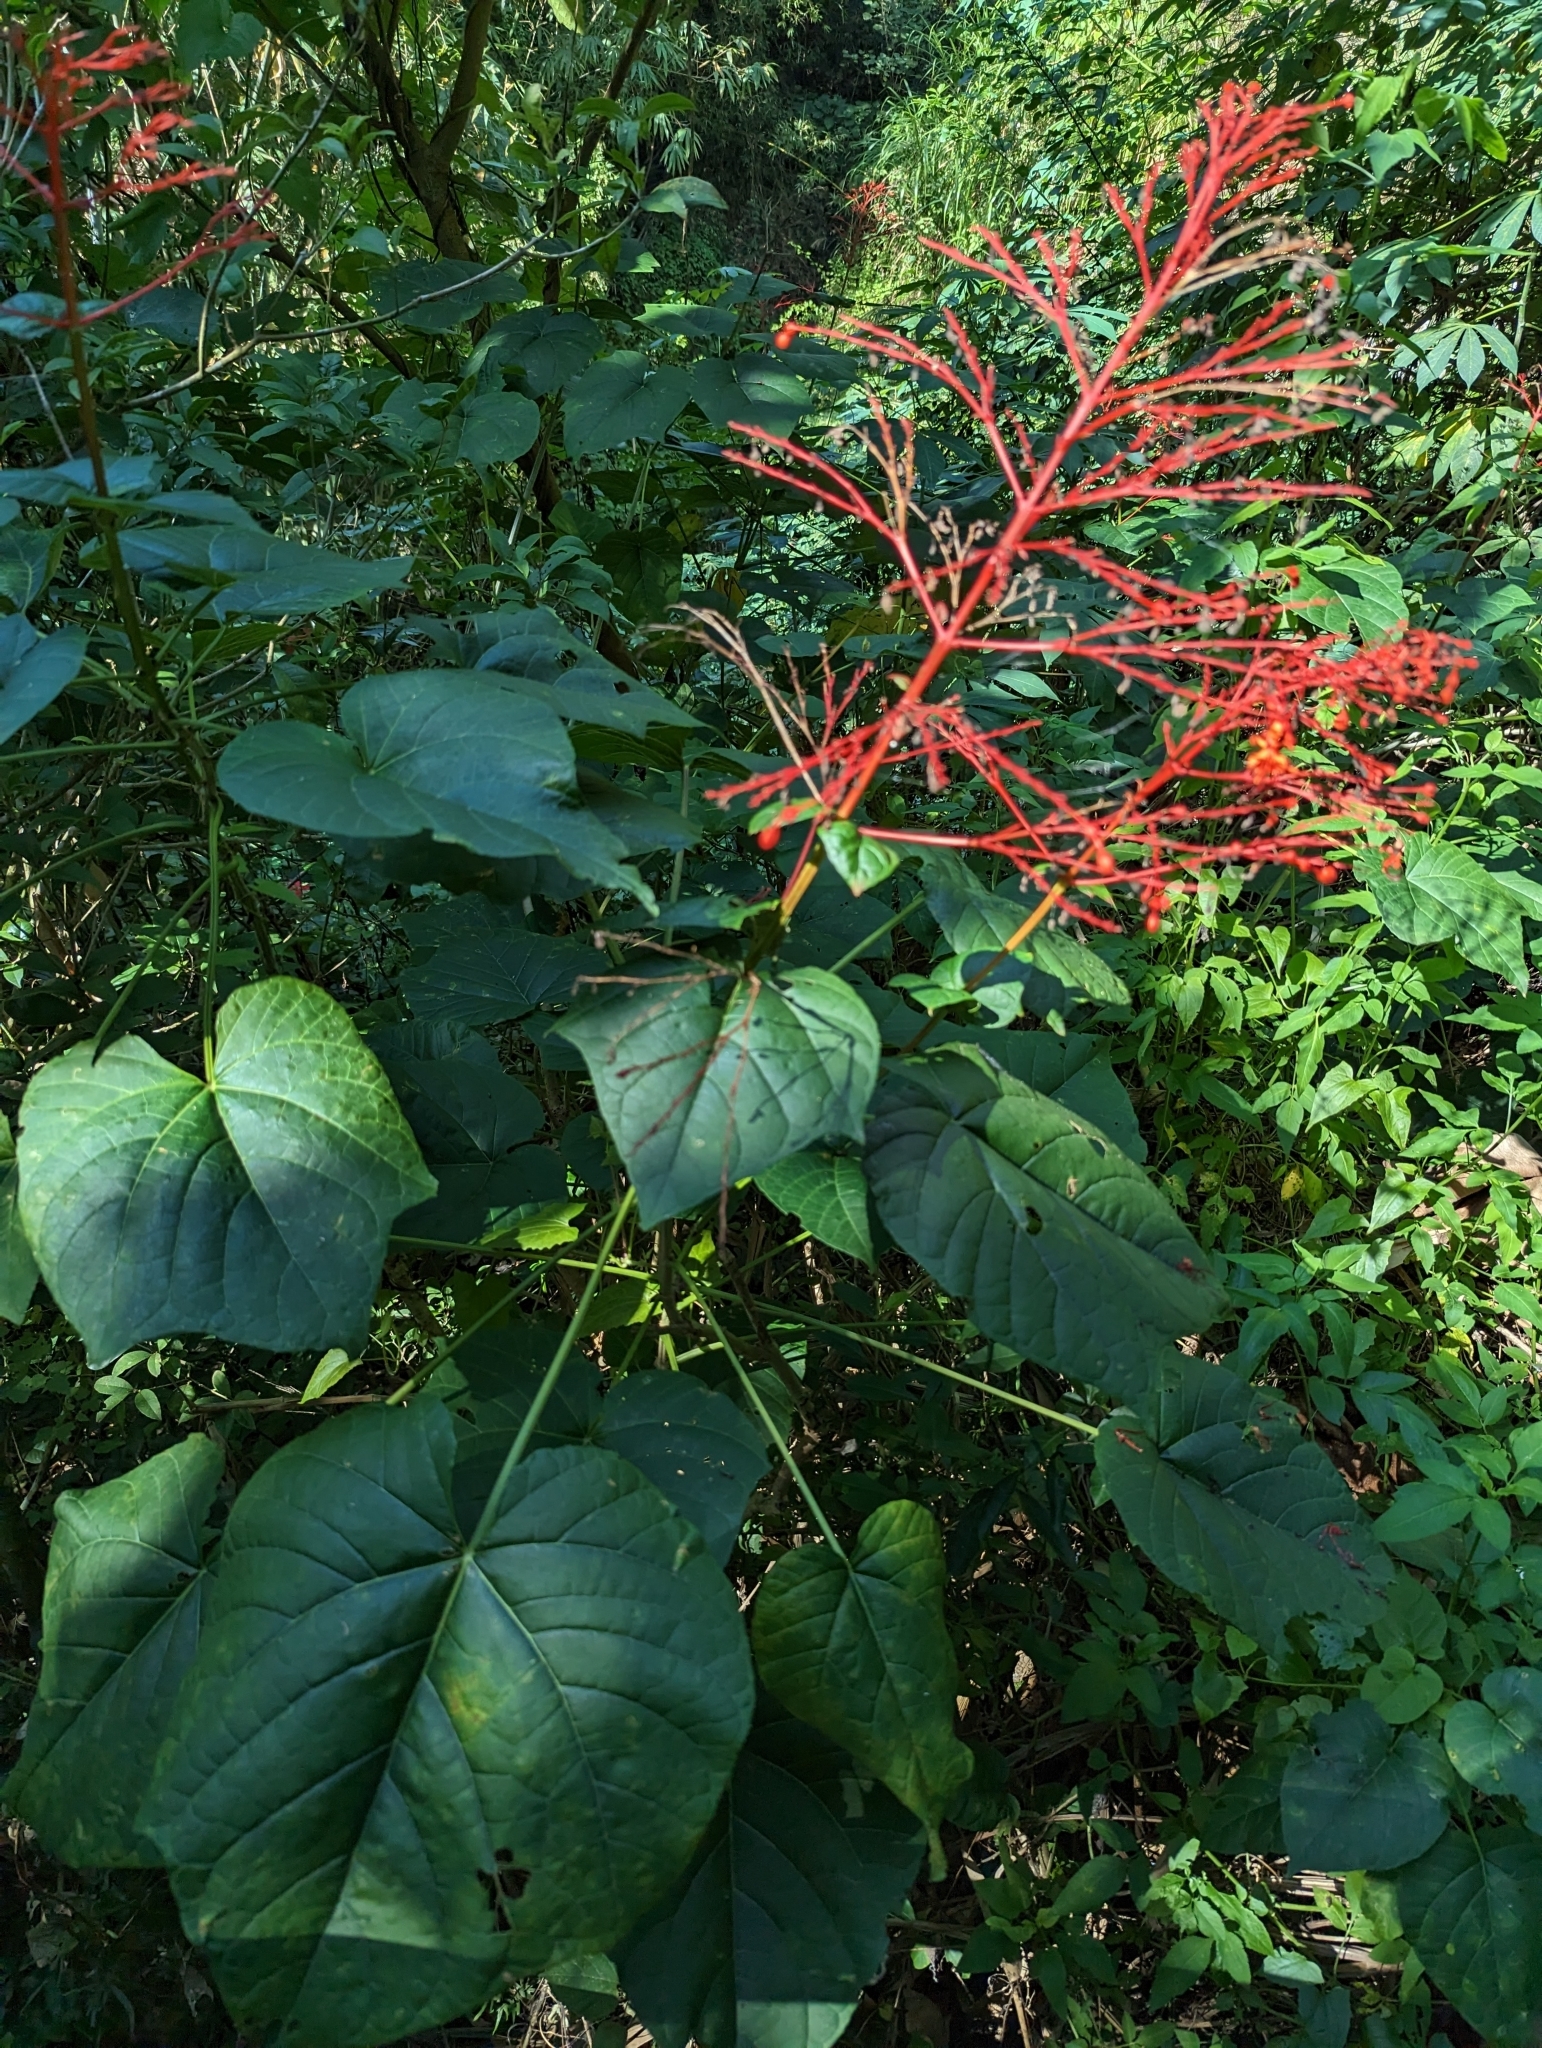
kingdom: Plantae
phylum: Tracheophyta
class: Magnoliopsida
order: Lamiales
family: Lamiaceae
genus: Clerodendrum
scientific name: Clerodendrum japonicum
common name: Japanese glorybower
